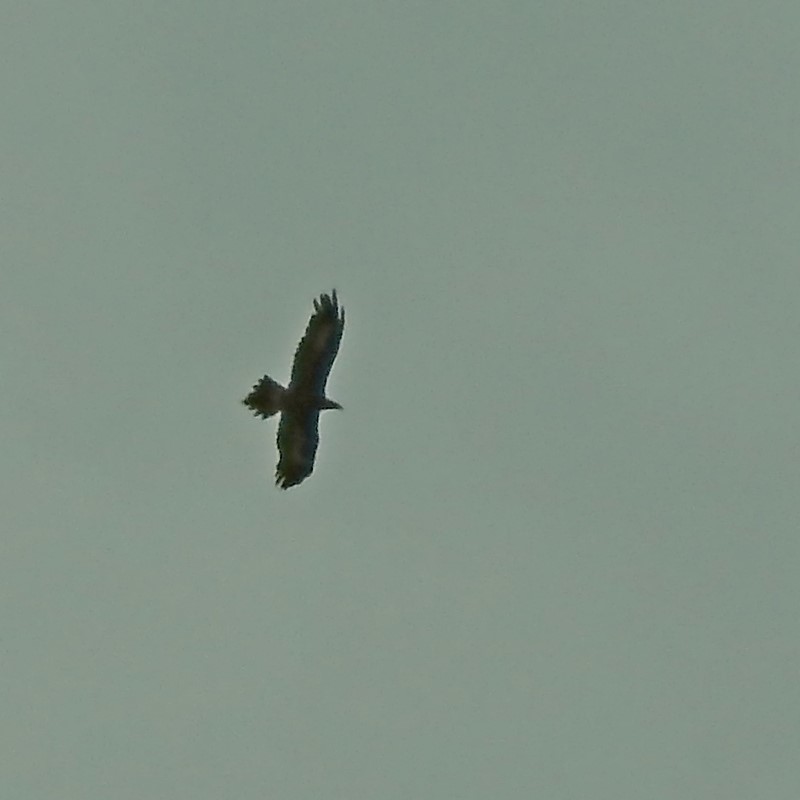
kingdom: Animalia
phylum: Chordata
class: Aves
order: Accipitriformes
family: Accipitridae
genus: Aquila
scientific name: Aquila audax
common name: Wedge-tailed eagle
